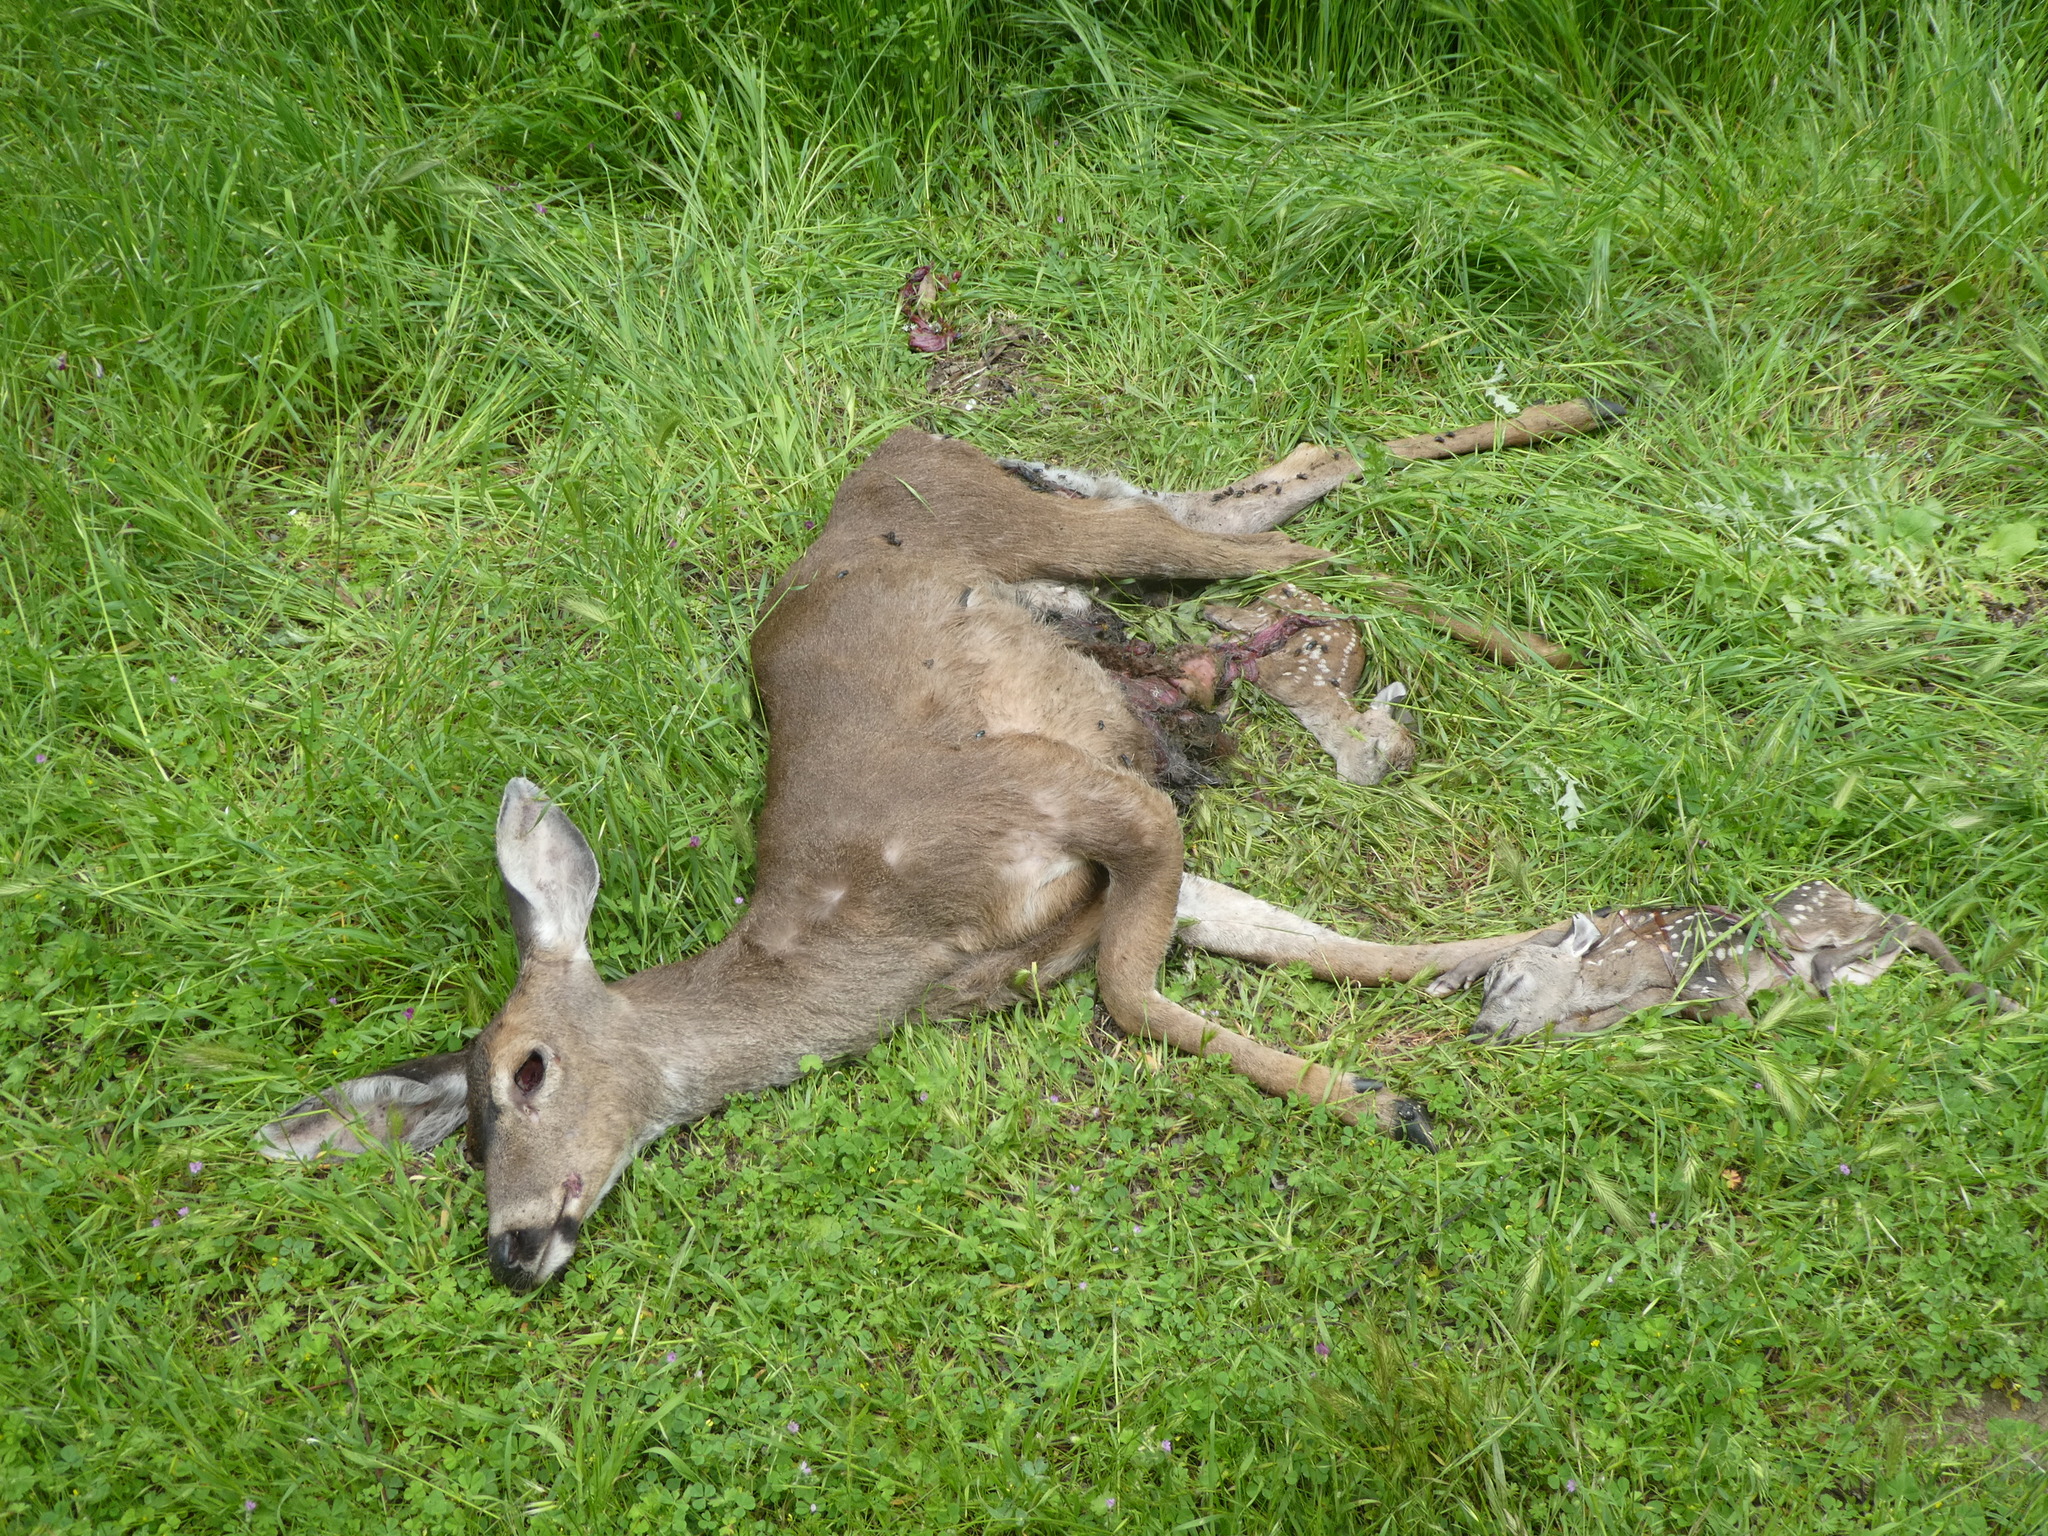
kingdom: Animalia
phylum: Chordata
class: Mammalia
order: Artiodactyla
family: Cervidae
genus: Odocoileus
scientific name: Odocoileus hemionus
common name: Mule deer
